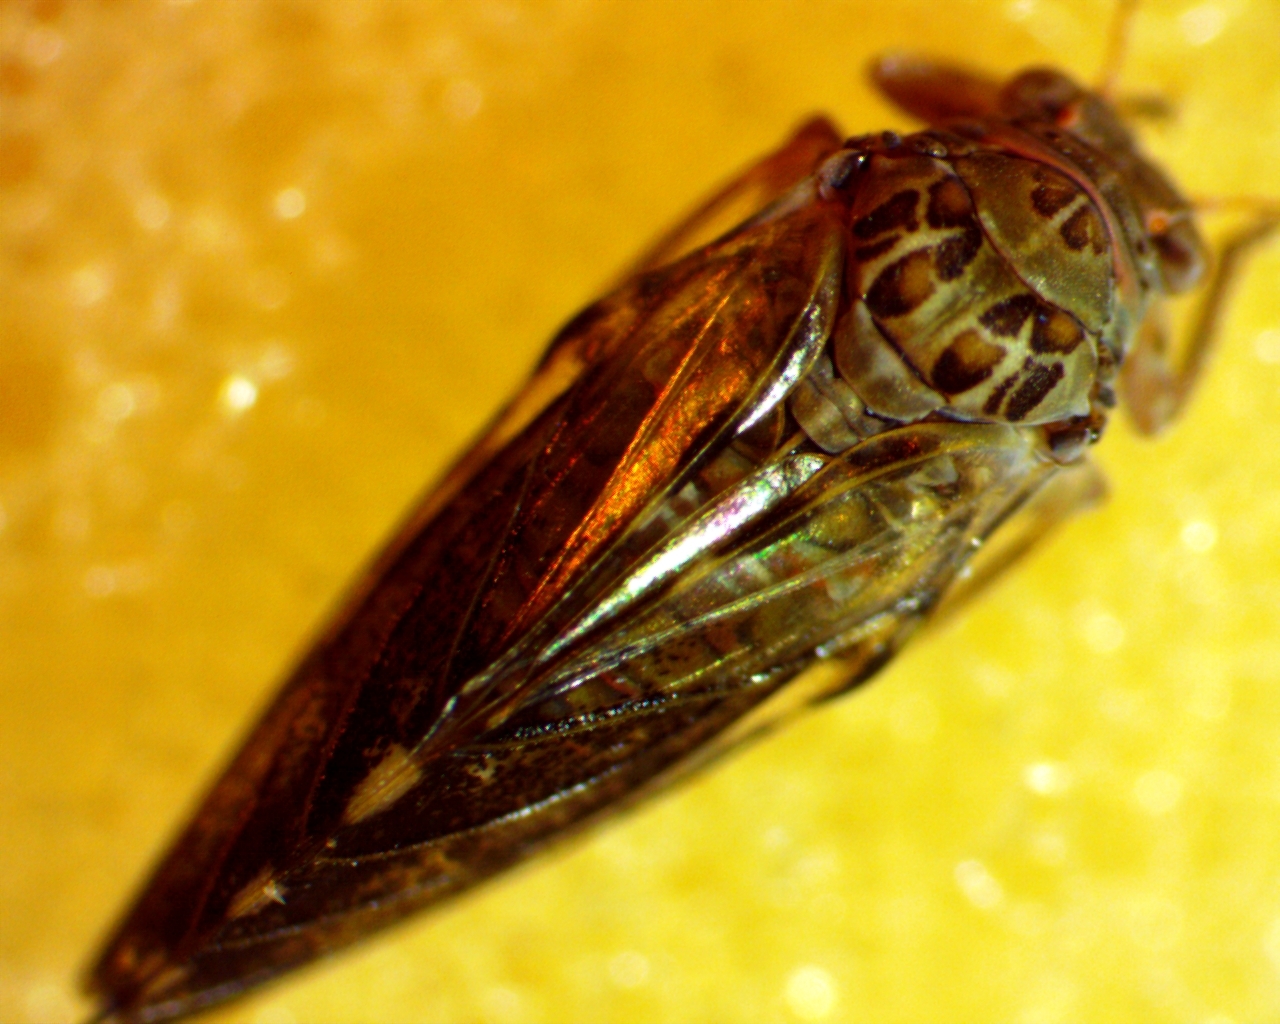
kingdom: Animalia
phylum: Arthropoda
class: Insecta
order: Hemiptera
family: Aphalaridae
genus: Pachypsylla
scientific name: Pachypsylla venusta
